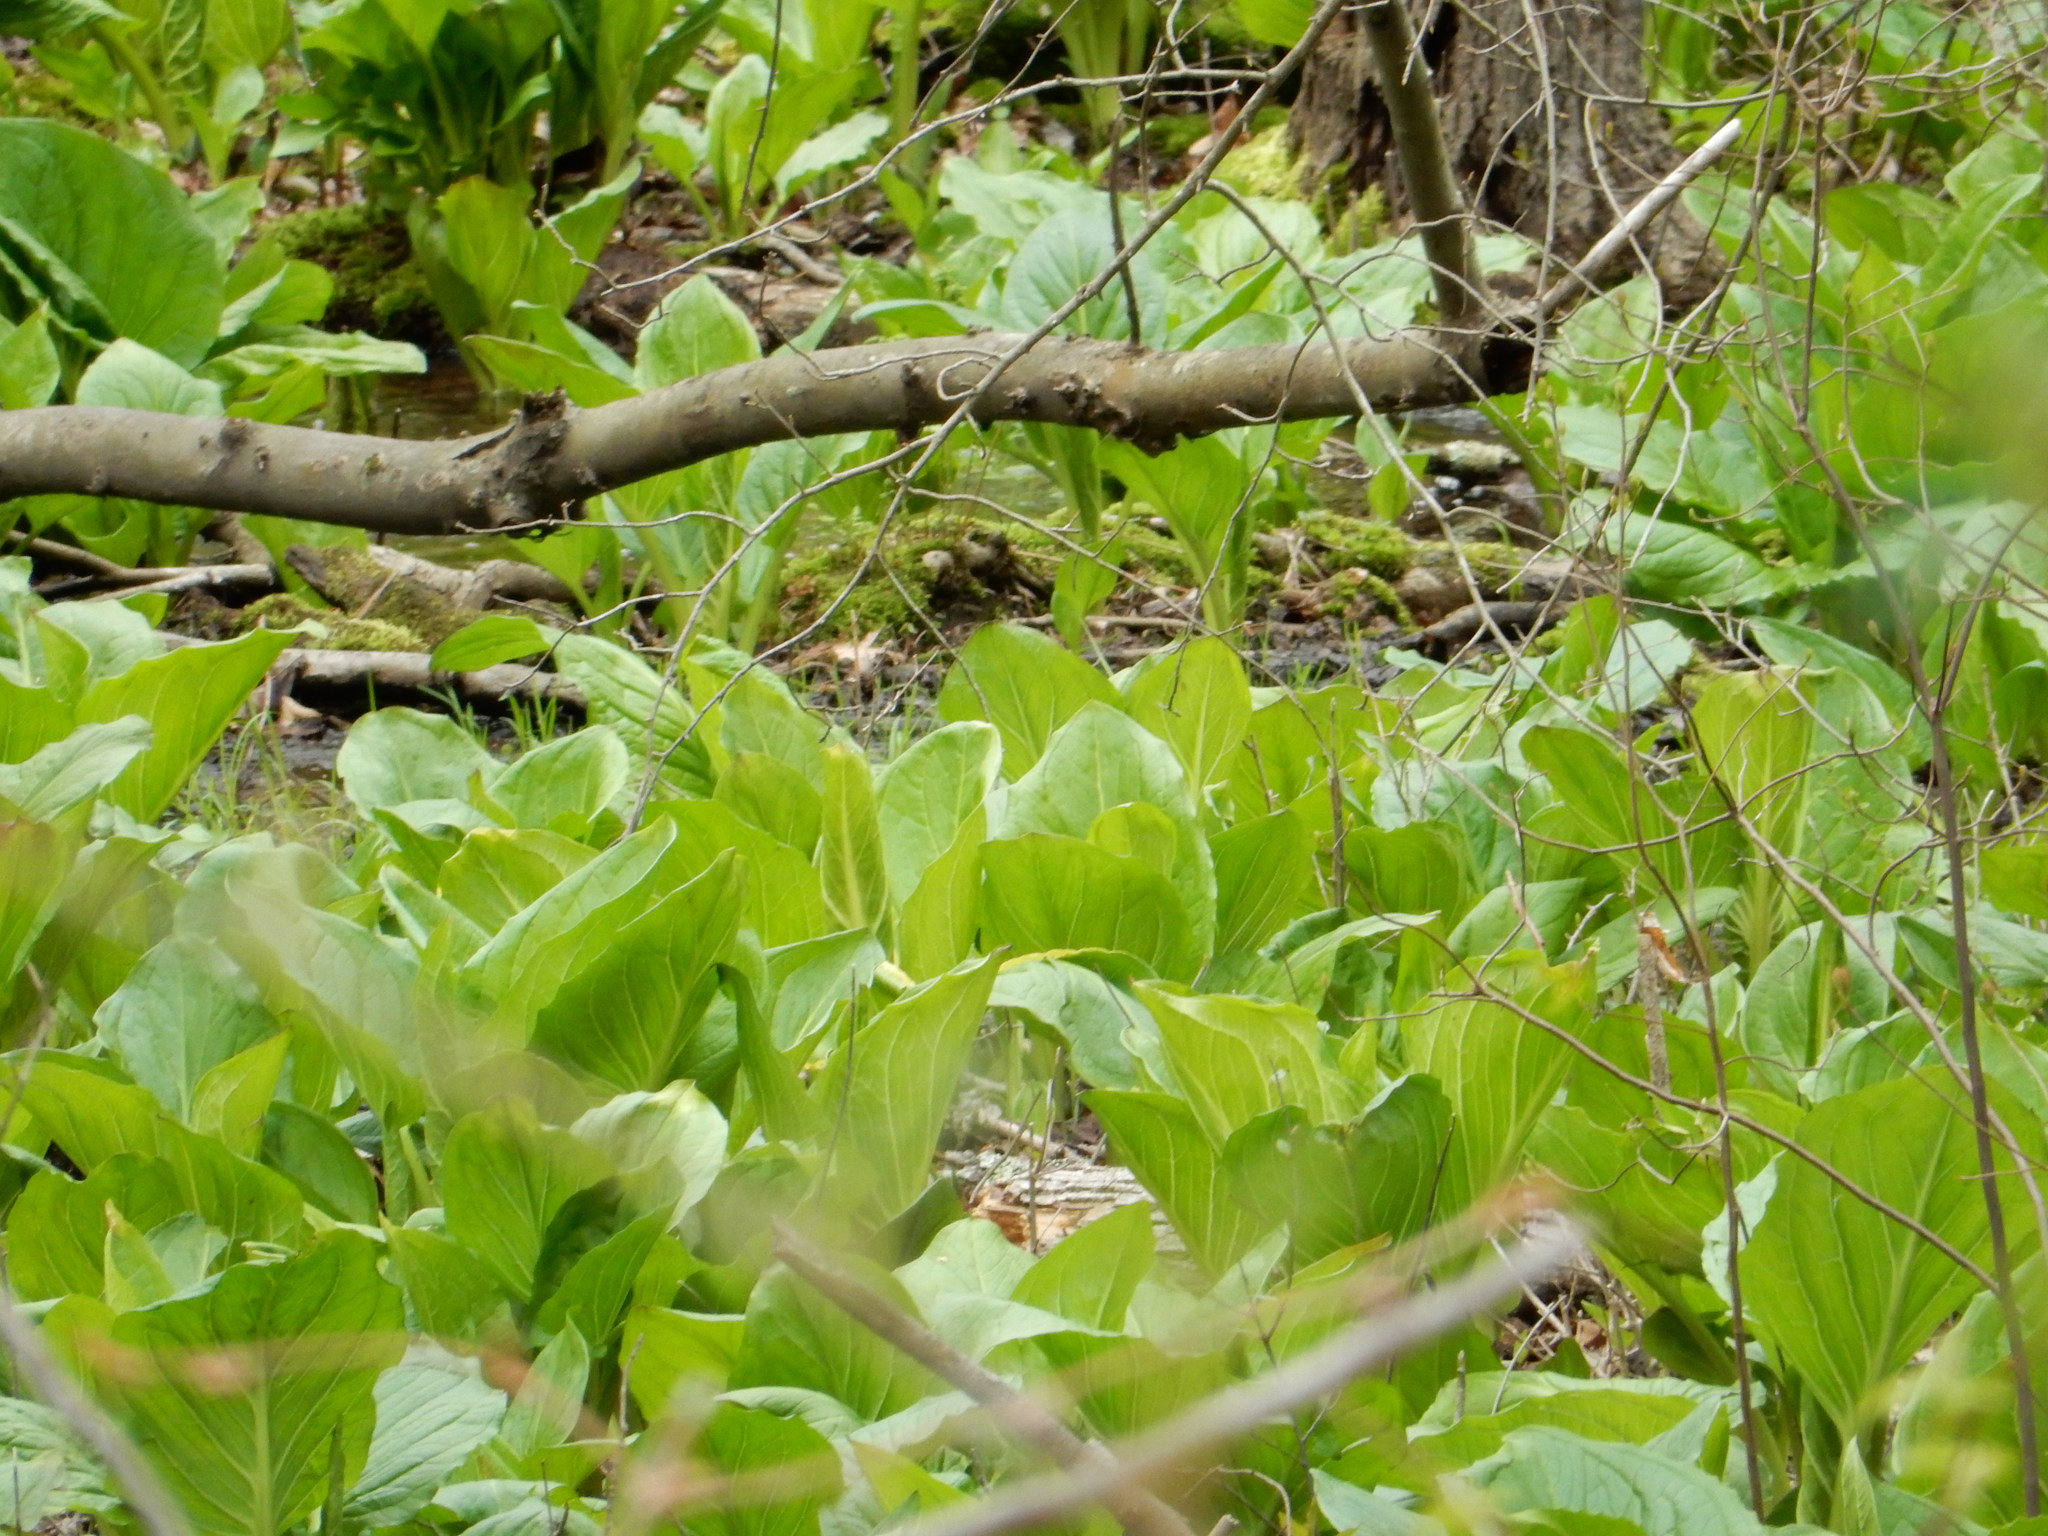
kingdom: Plantae
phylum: Tracheophyta
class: Liliopsida
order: Alismatales
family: Araceae
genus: Symplocarpus
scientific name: Symplocarpus foetidus
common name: Eastern skunk cabbage
